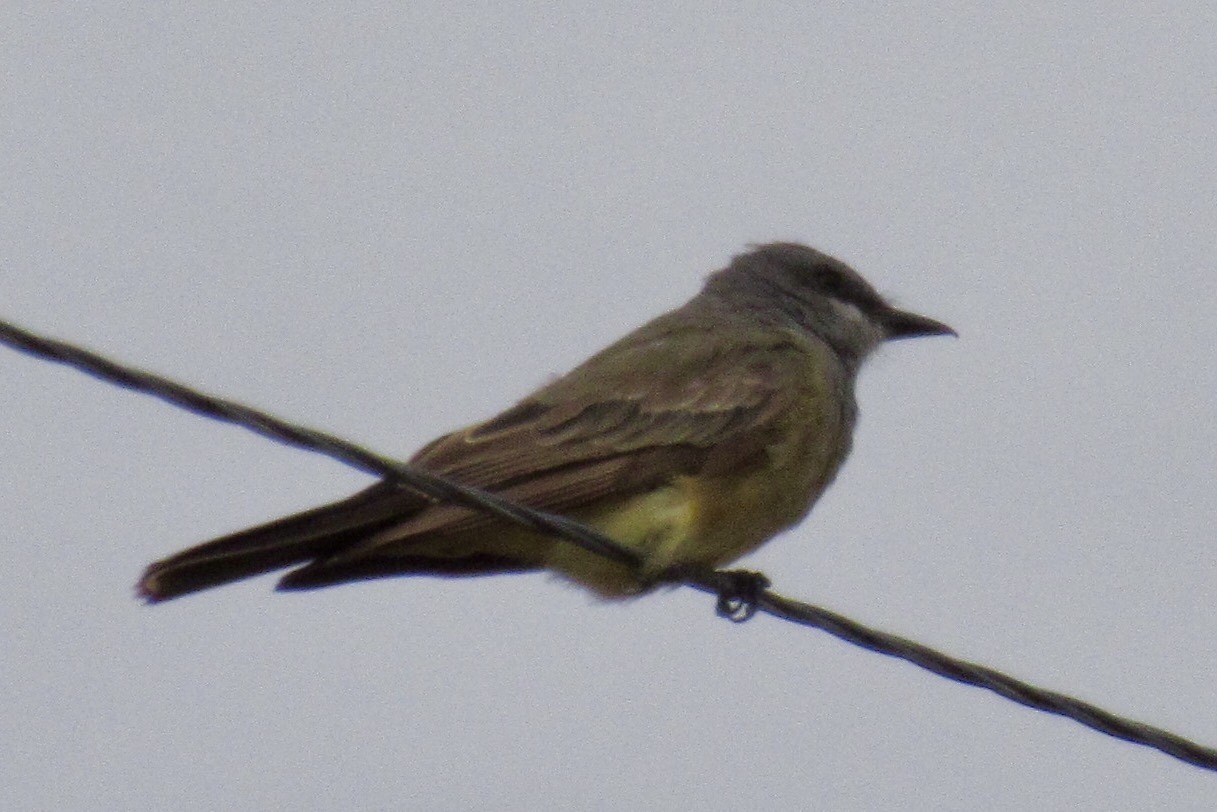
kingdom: Animalia
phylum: Chordata
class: Aves
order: Passeriformes
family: Tyrannidae
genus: Tyrannus
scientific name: Tyrannus vociferans
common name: Cassin's kingbird
